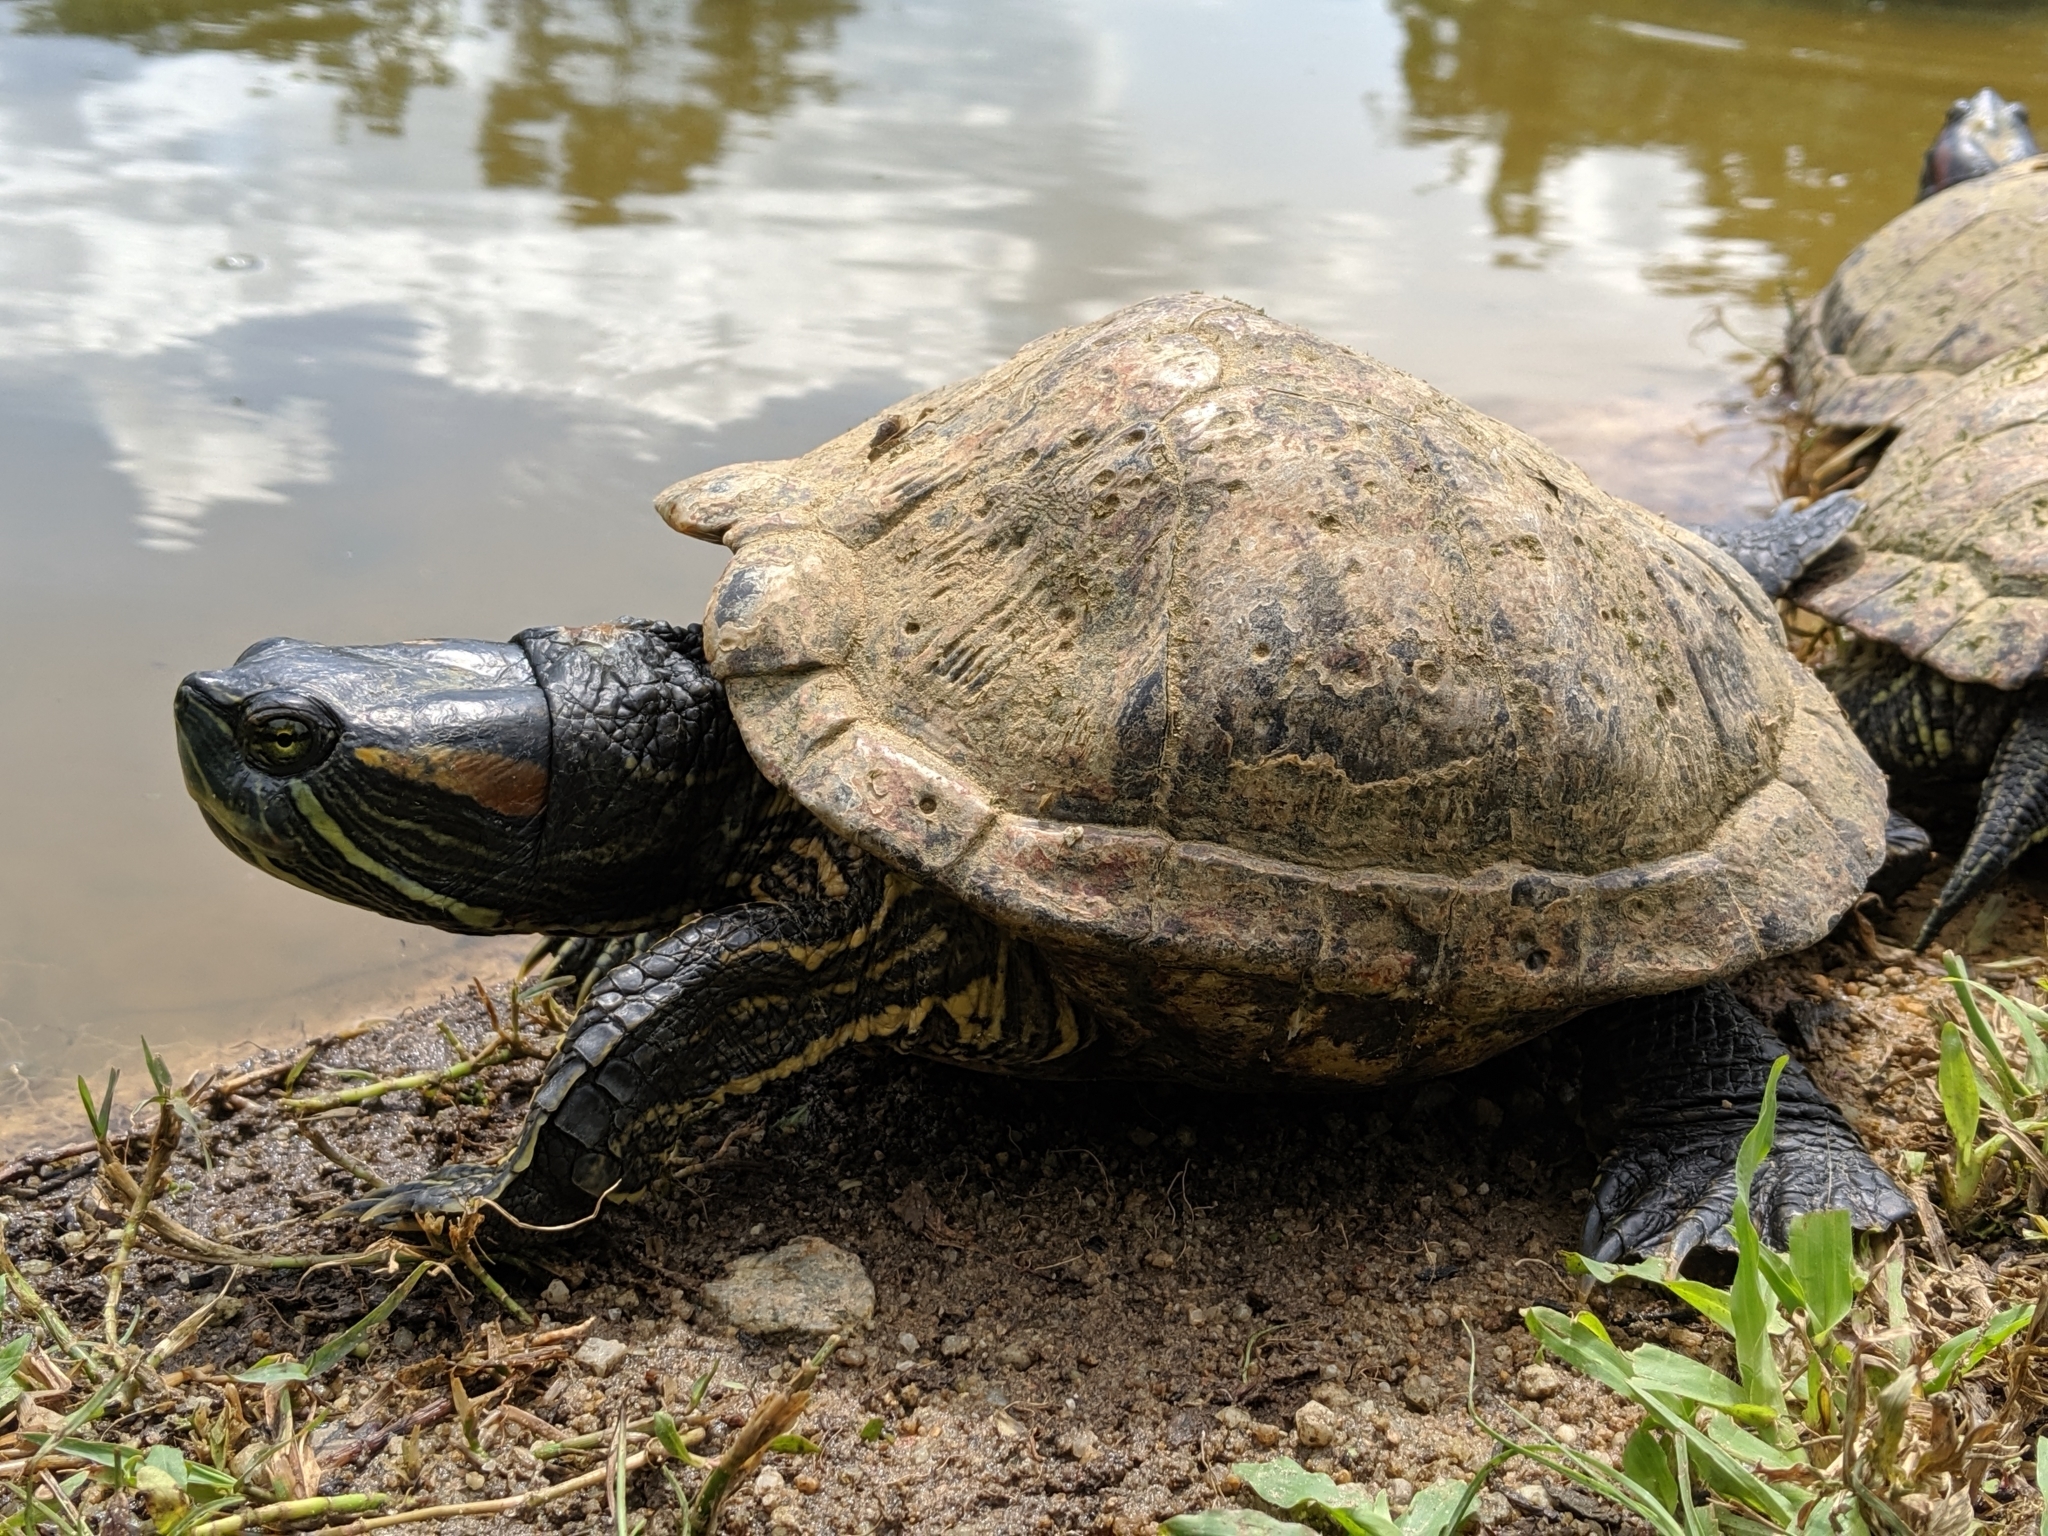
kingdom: Animalia
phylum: Chordata
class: Testudines
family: Emydidae
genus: Trachemys
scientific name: Trachemys scripta
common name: Slider
